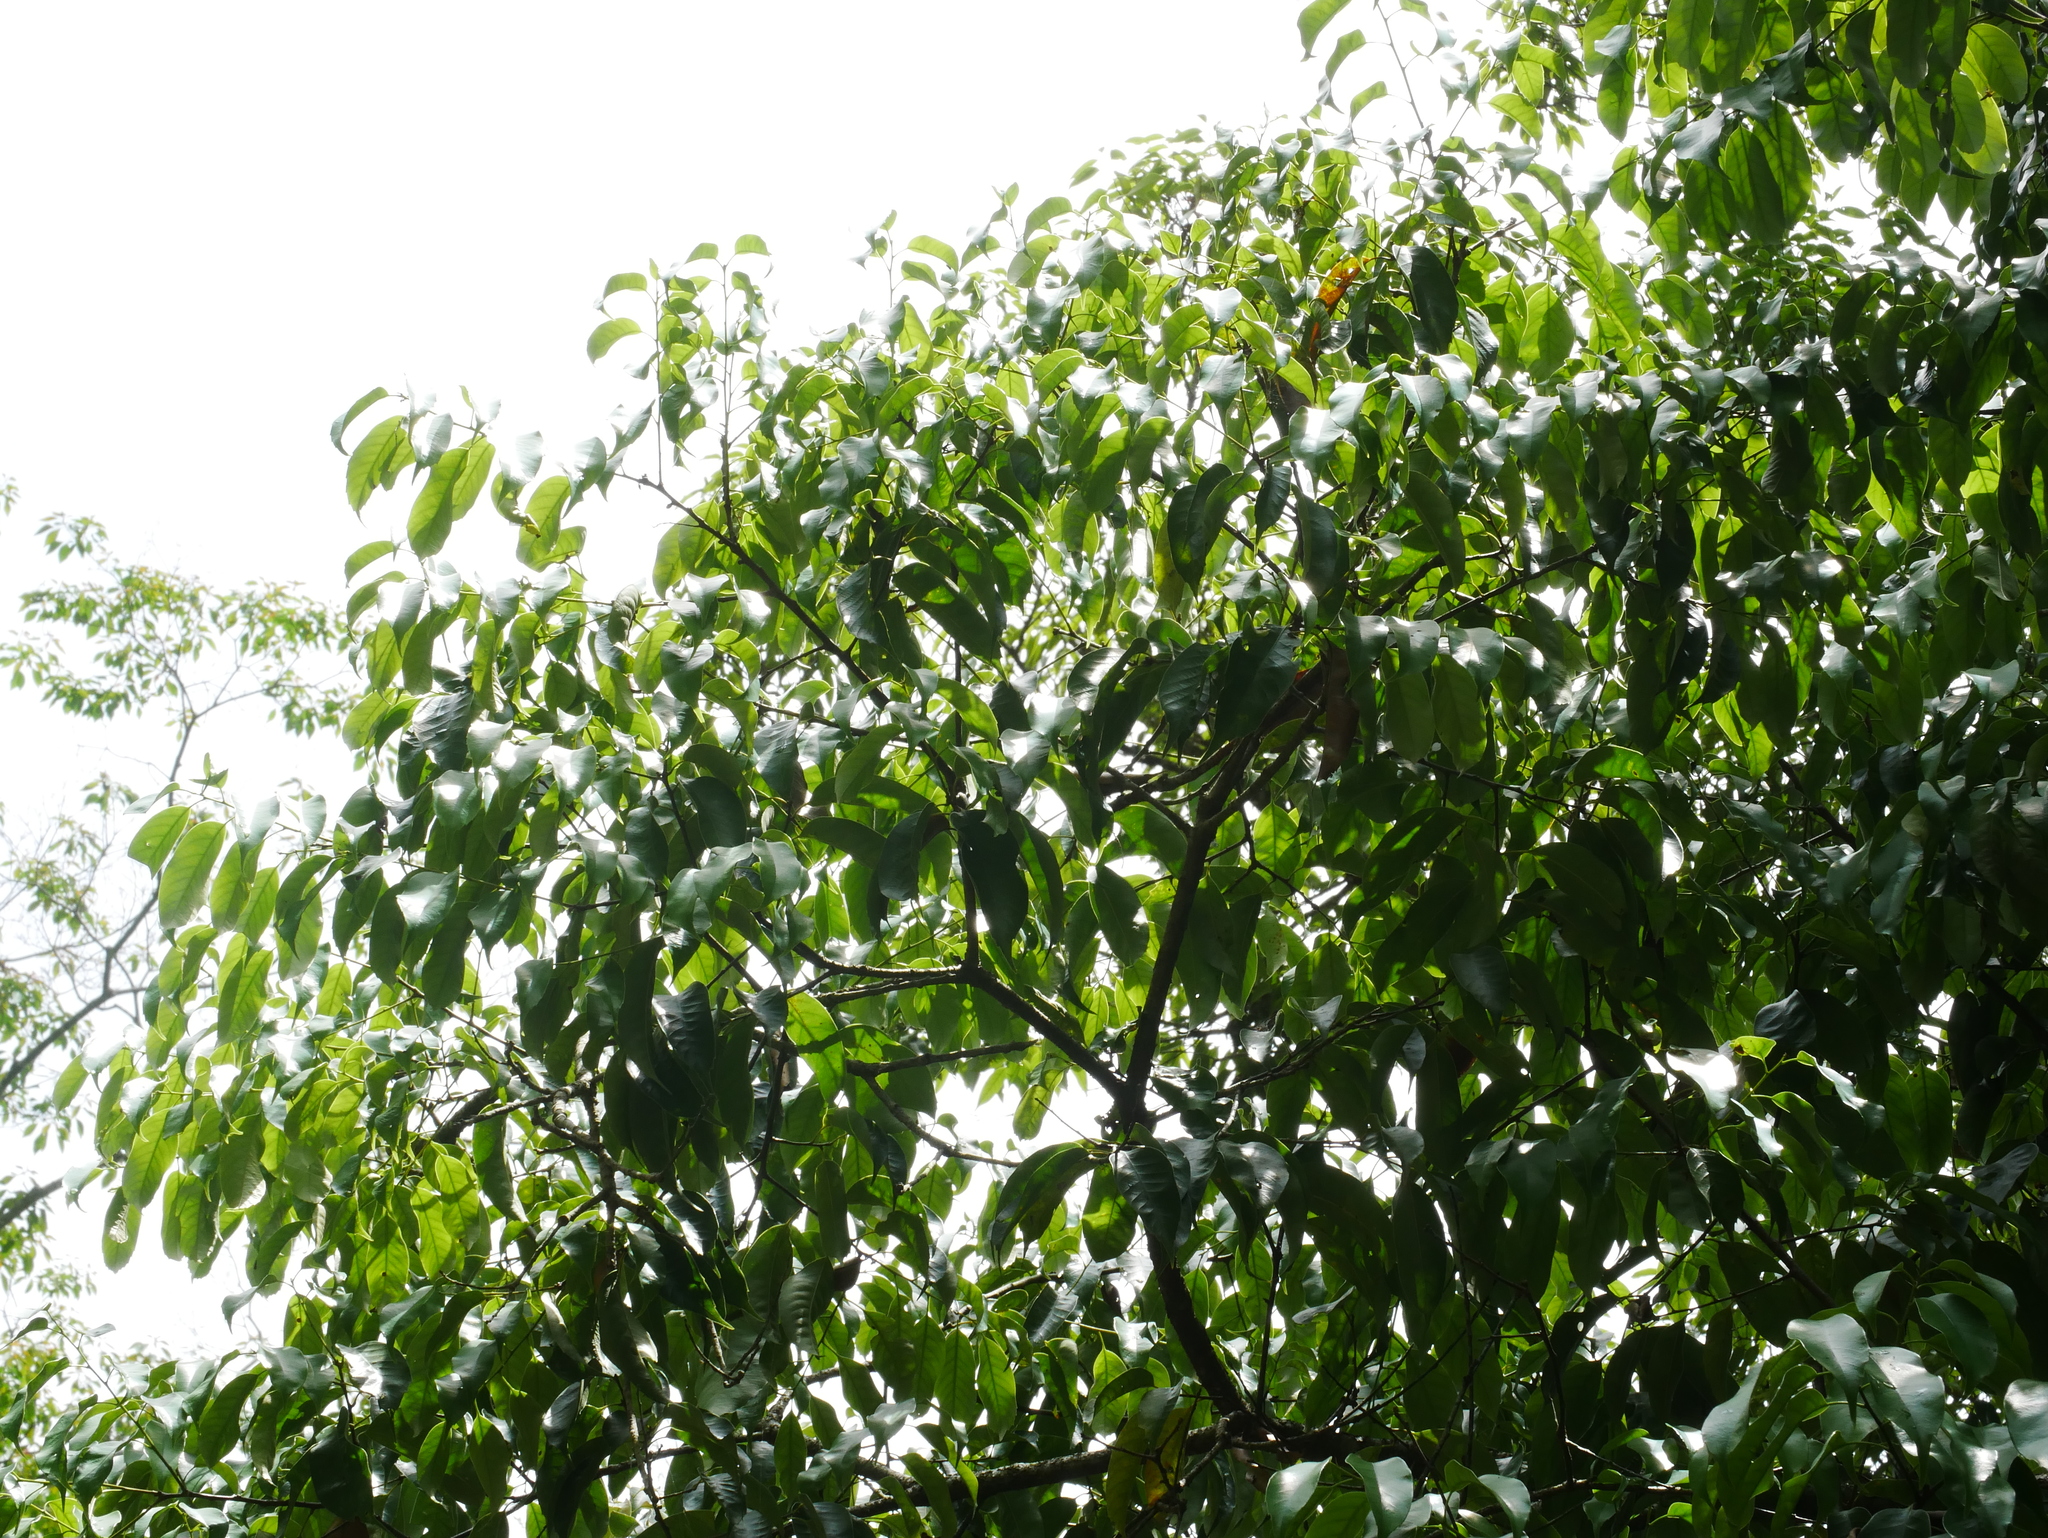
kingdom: Plantae
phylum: Tracheophyta
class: Magnoliopsida
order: Fagales
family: Fagaceae
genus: Castanopsis
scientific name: Castanopsis kawakamii
